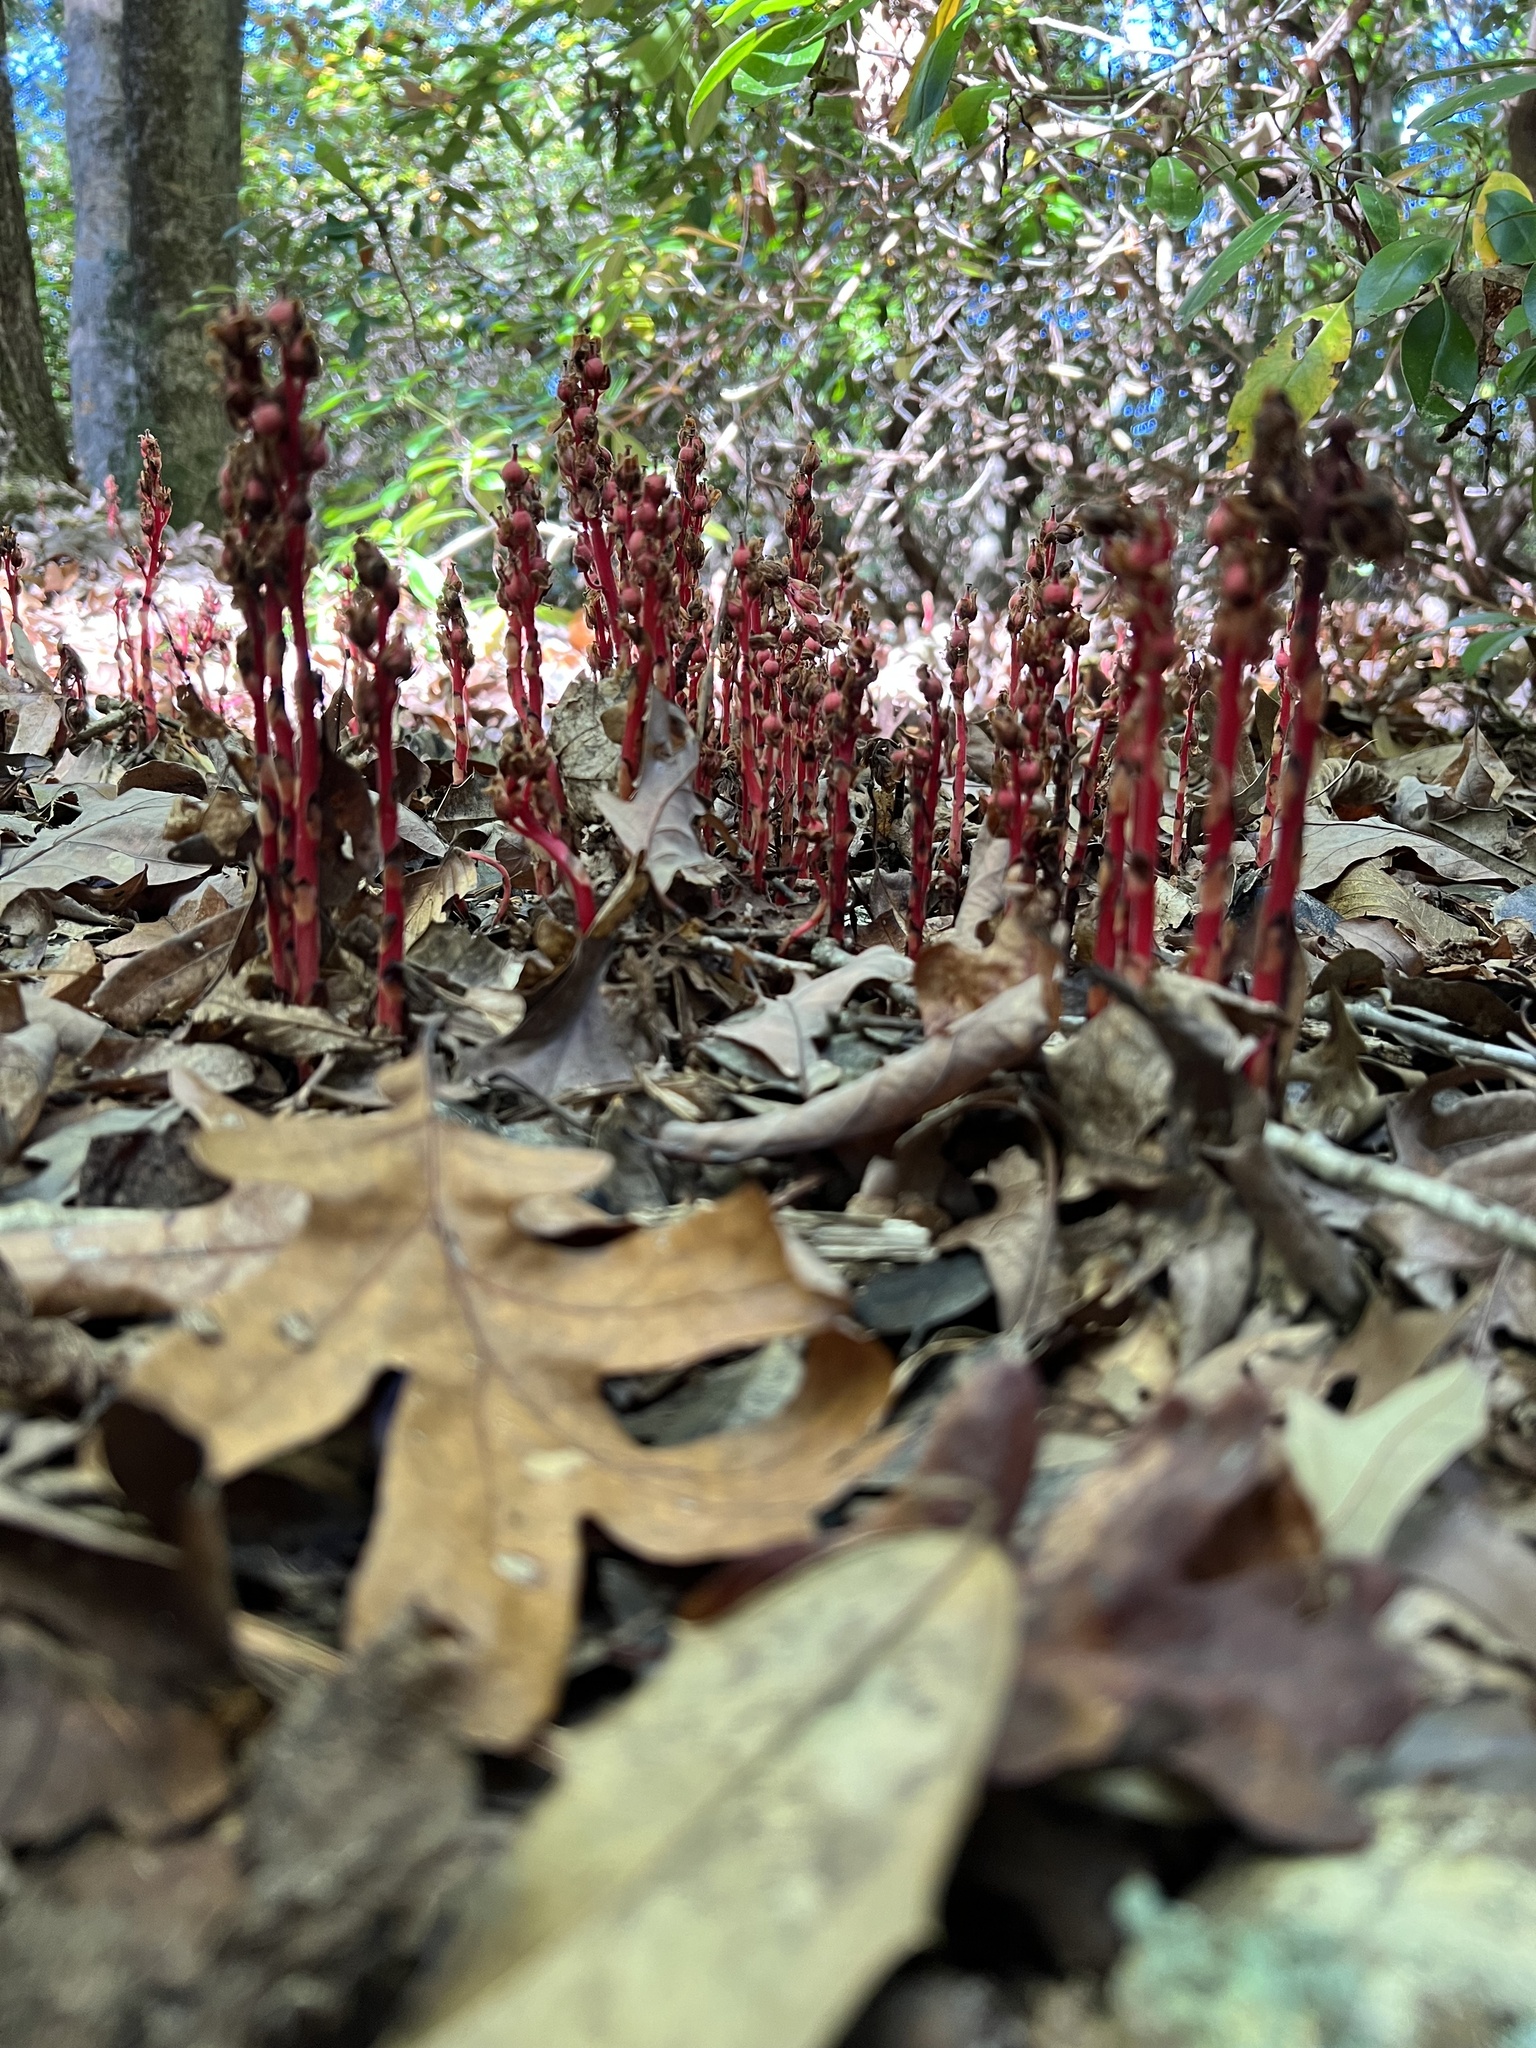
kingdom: Plantae
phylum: Tracheophyta
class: Magnoliopsida
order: Ericales
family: Ericaceae
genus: Hypopitys
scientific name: Hypopitys monotropa
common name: Yellow bird's-nest
